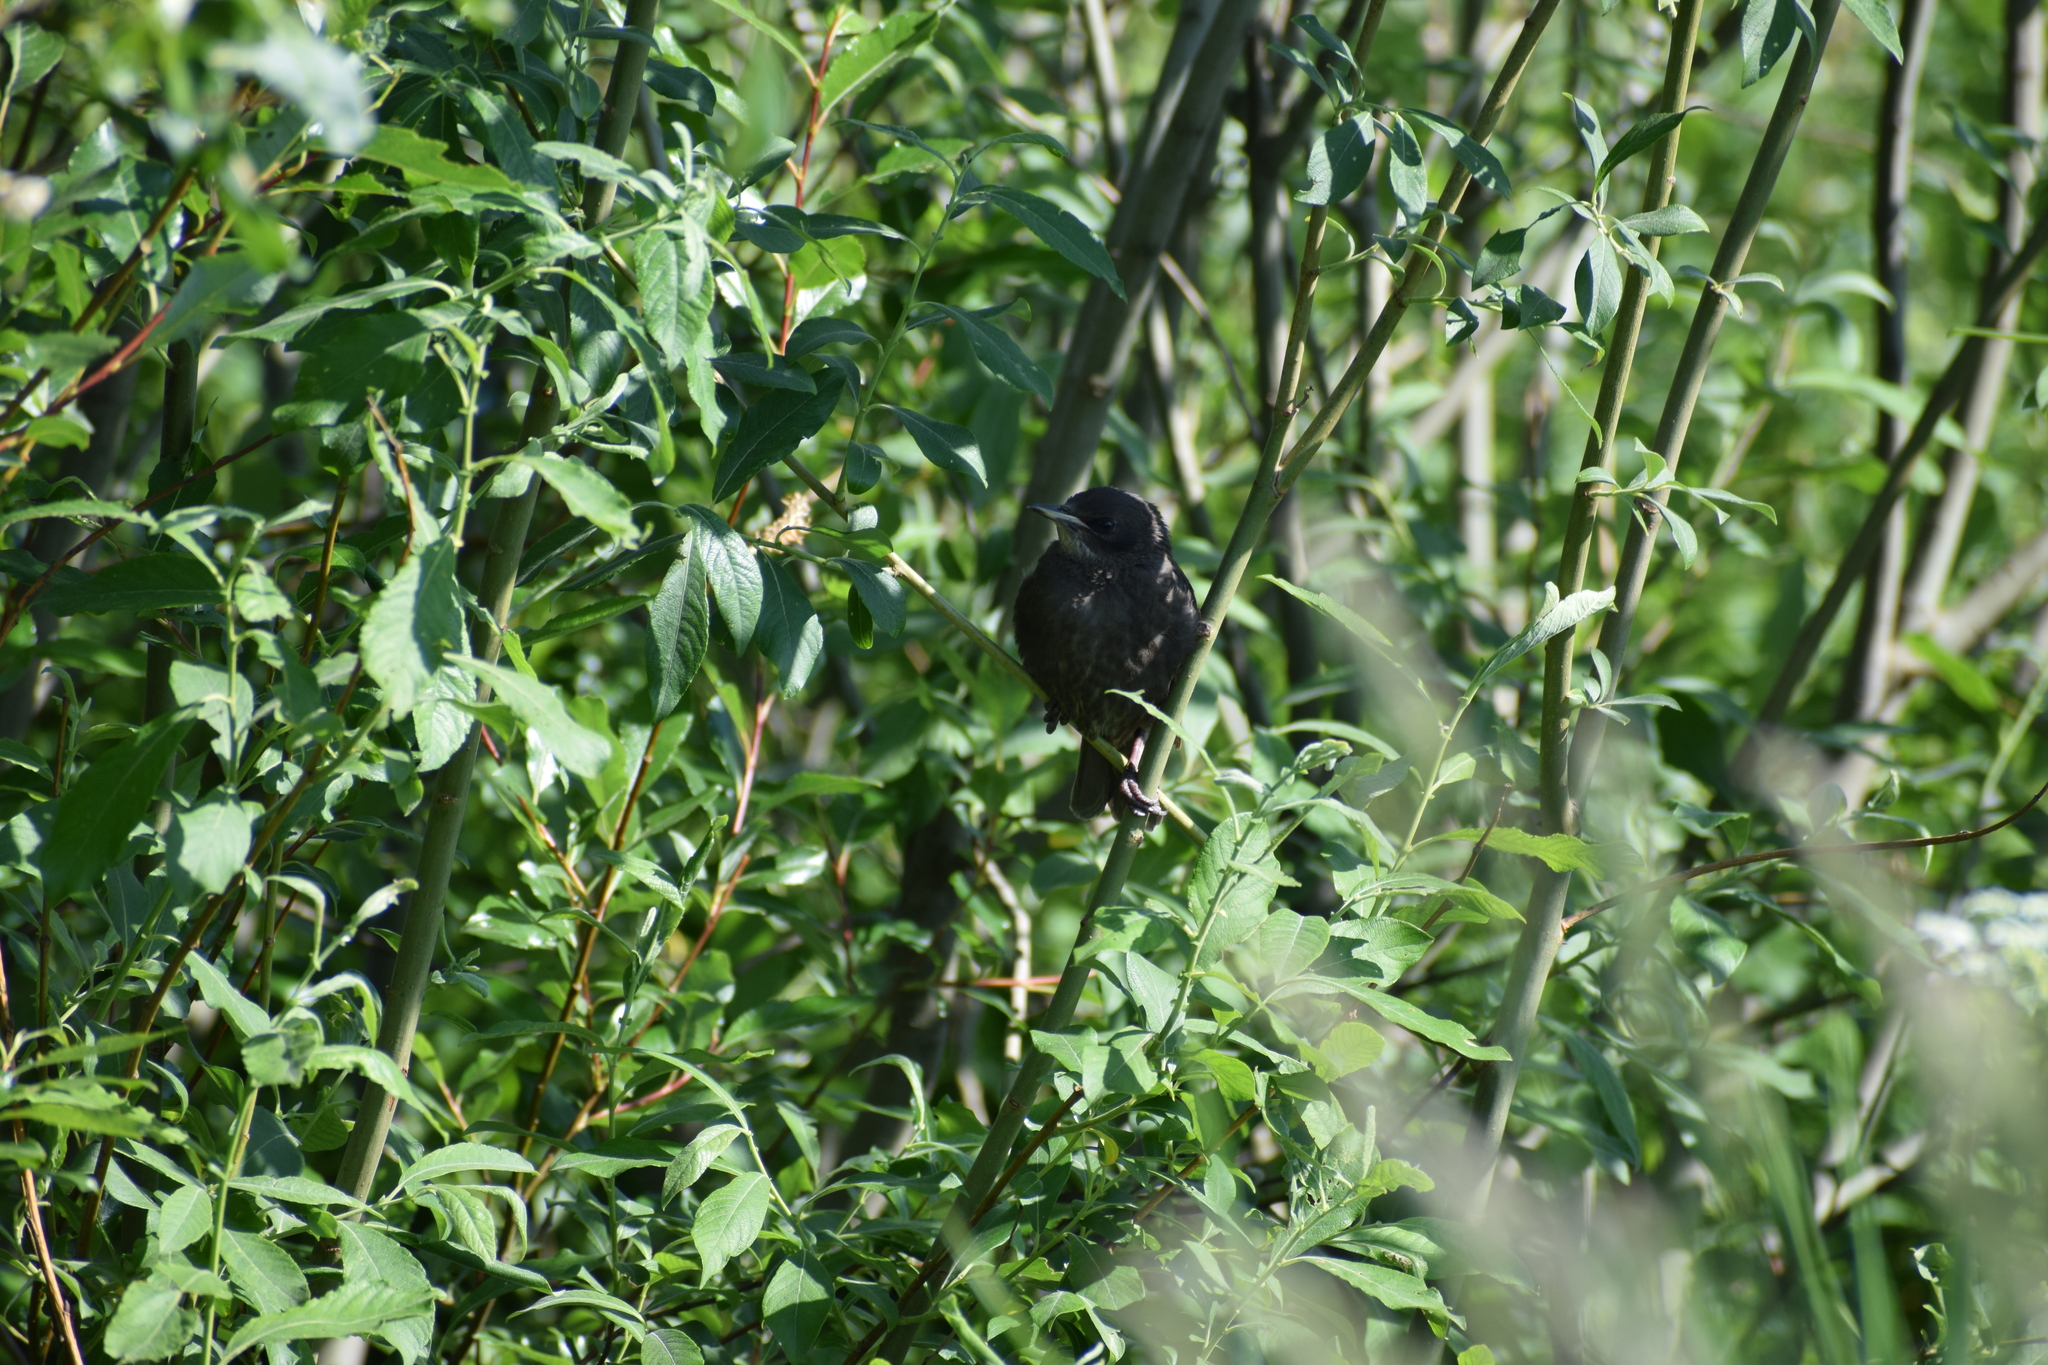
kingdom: Animalia
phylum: Chordata
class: Aves
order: Passeriformes
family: Sturnidae
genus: Sturnus
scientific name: Sturnus vulgaris
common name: Common starling
